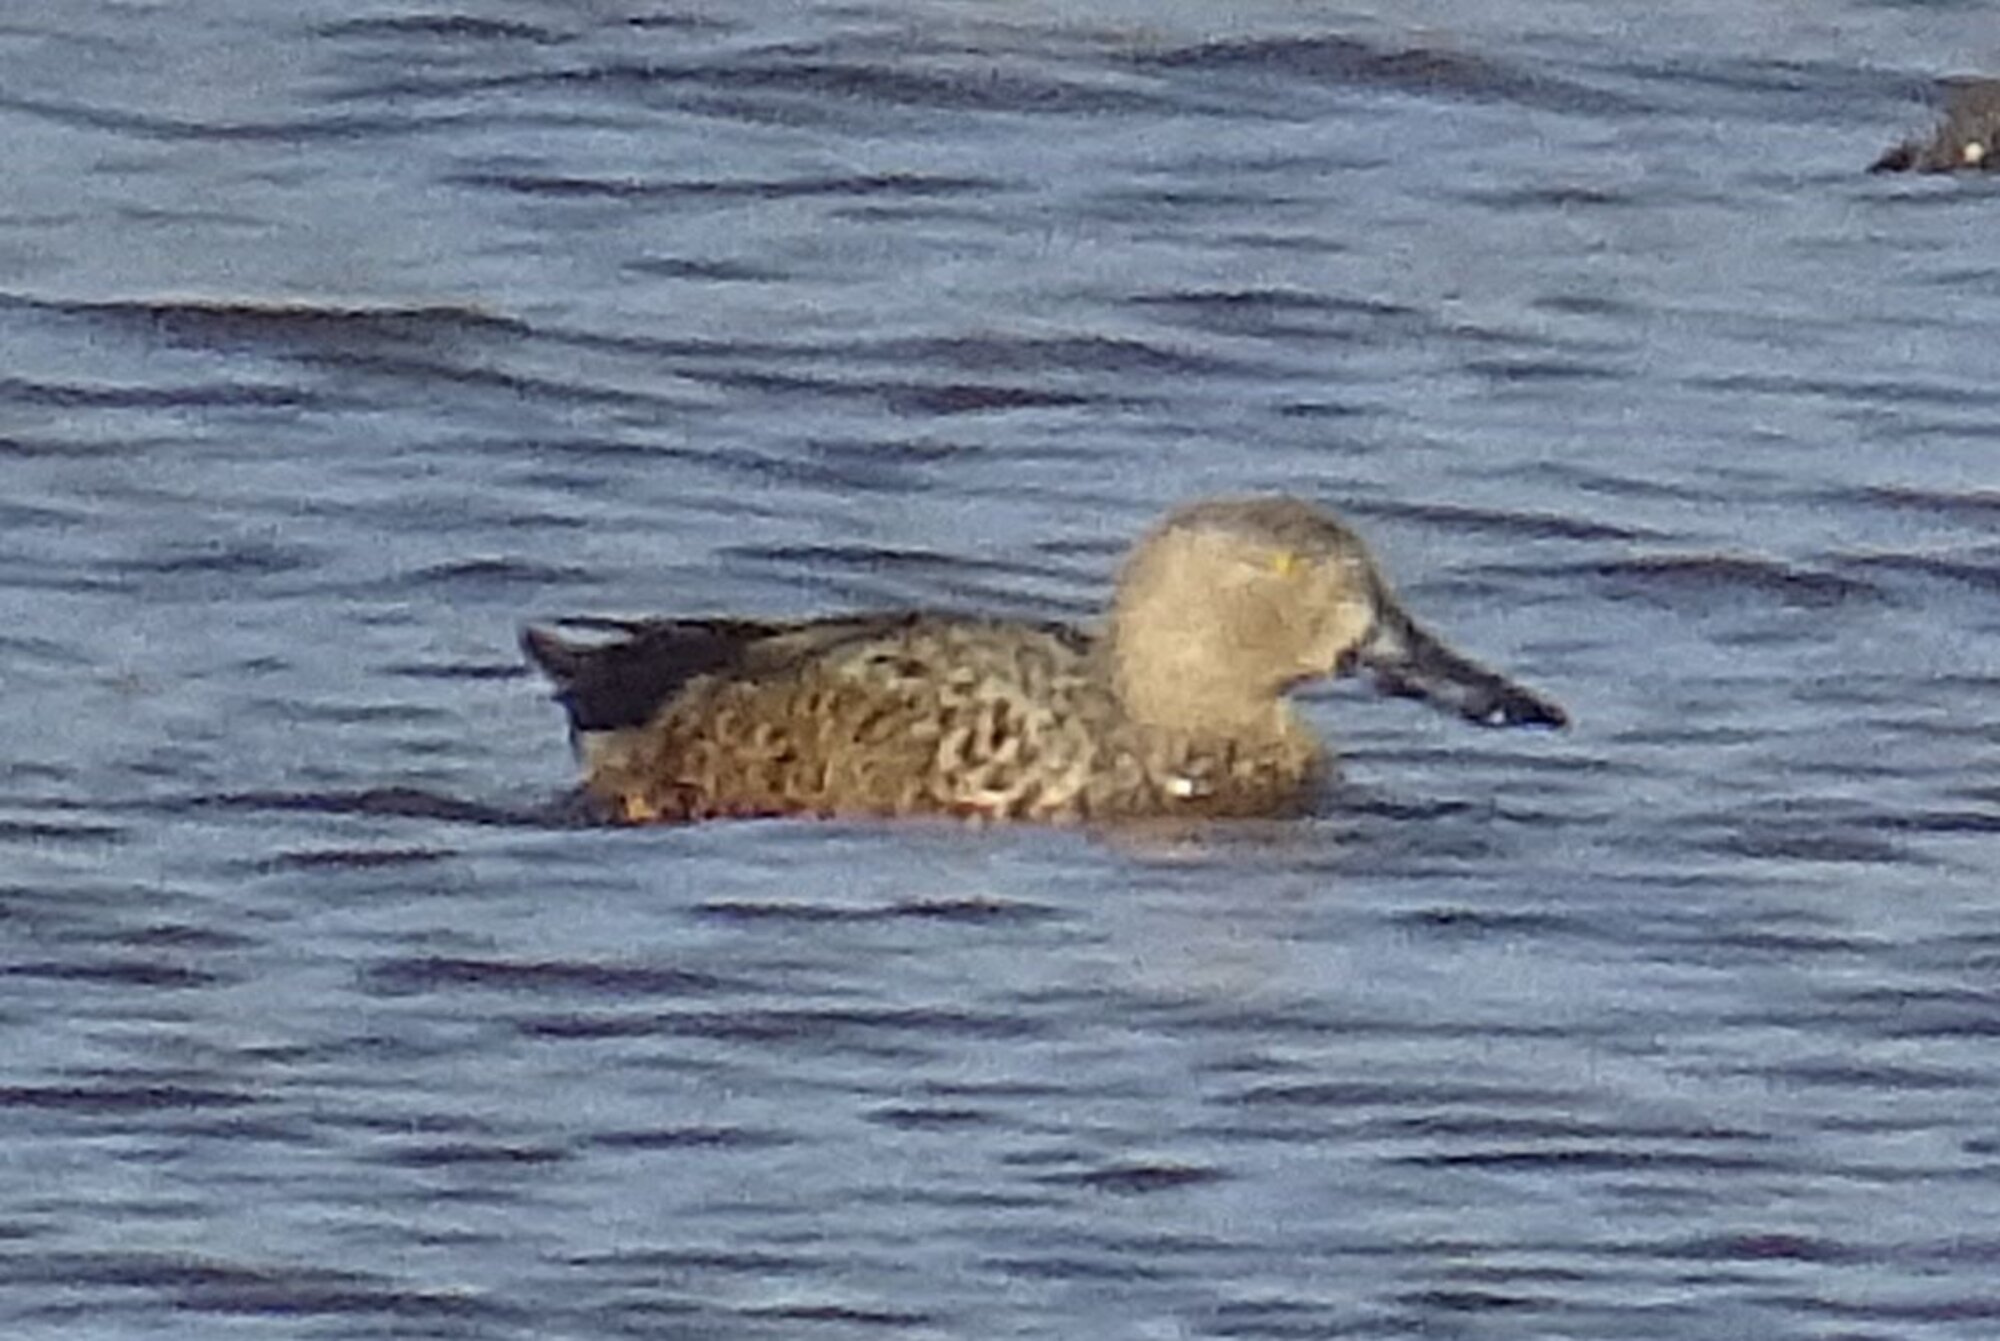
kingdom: Animalia
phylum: Chordata
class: Aves
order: Anseriformes
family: Anatidae
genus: Spatula
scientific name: Spatula smithii
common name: Cape shoveler
